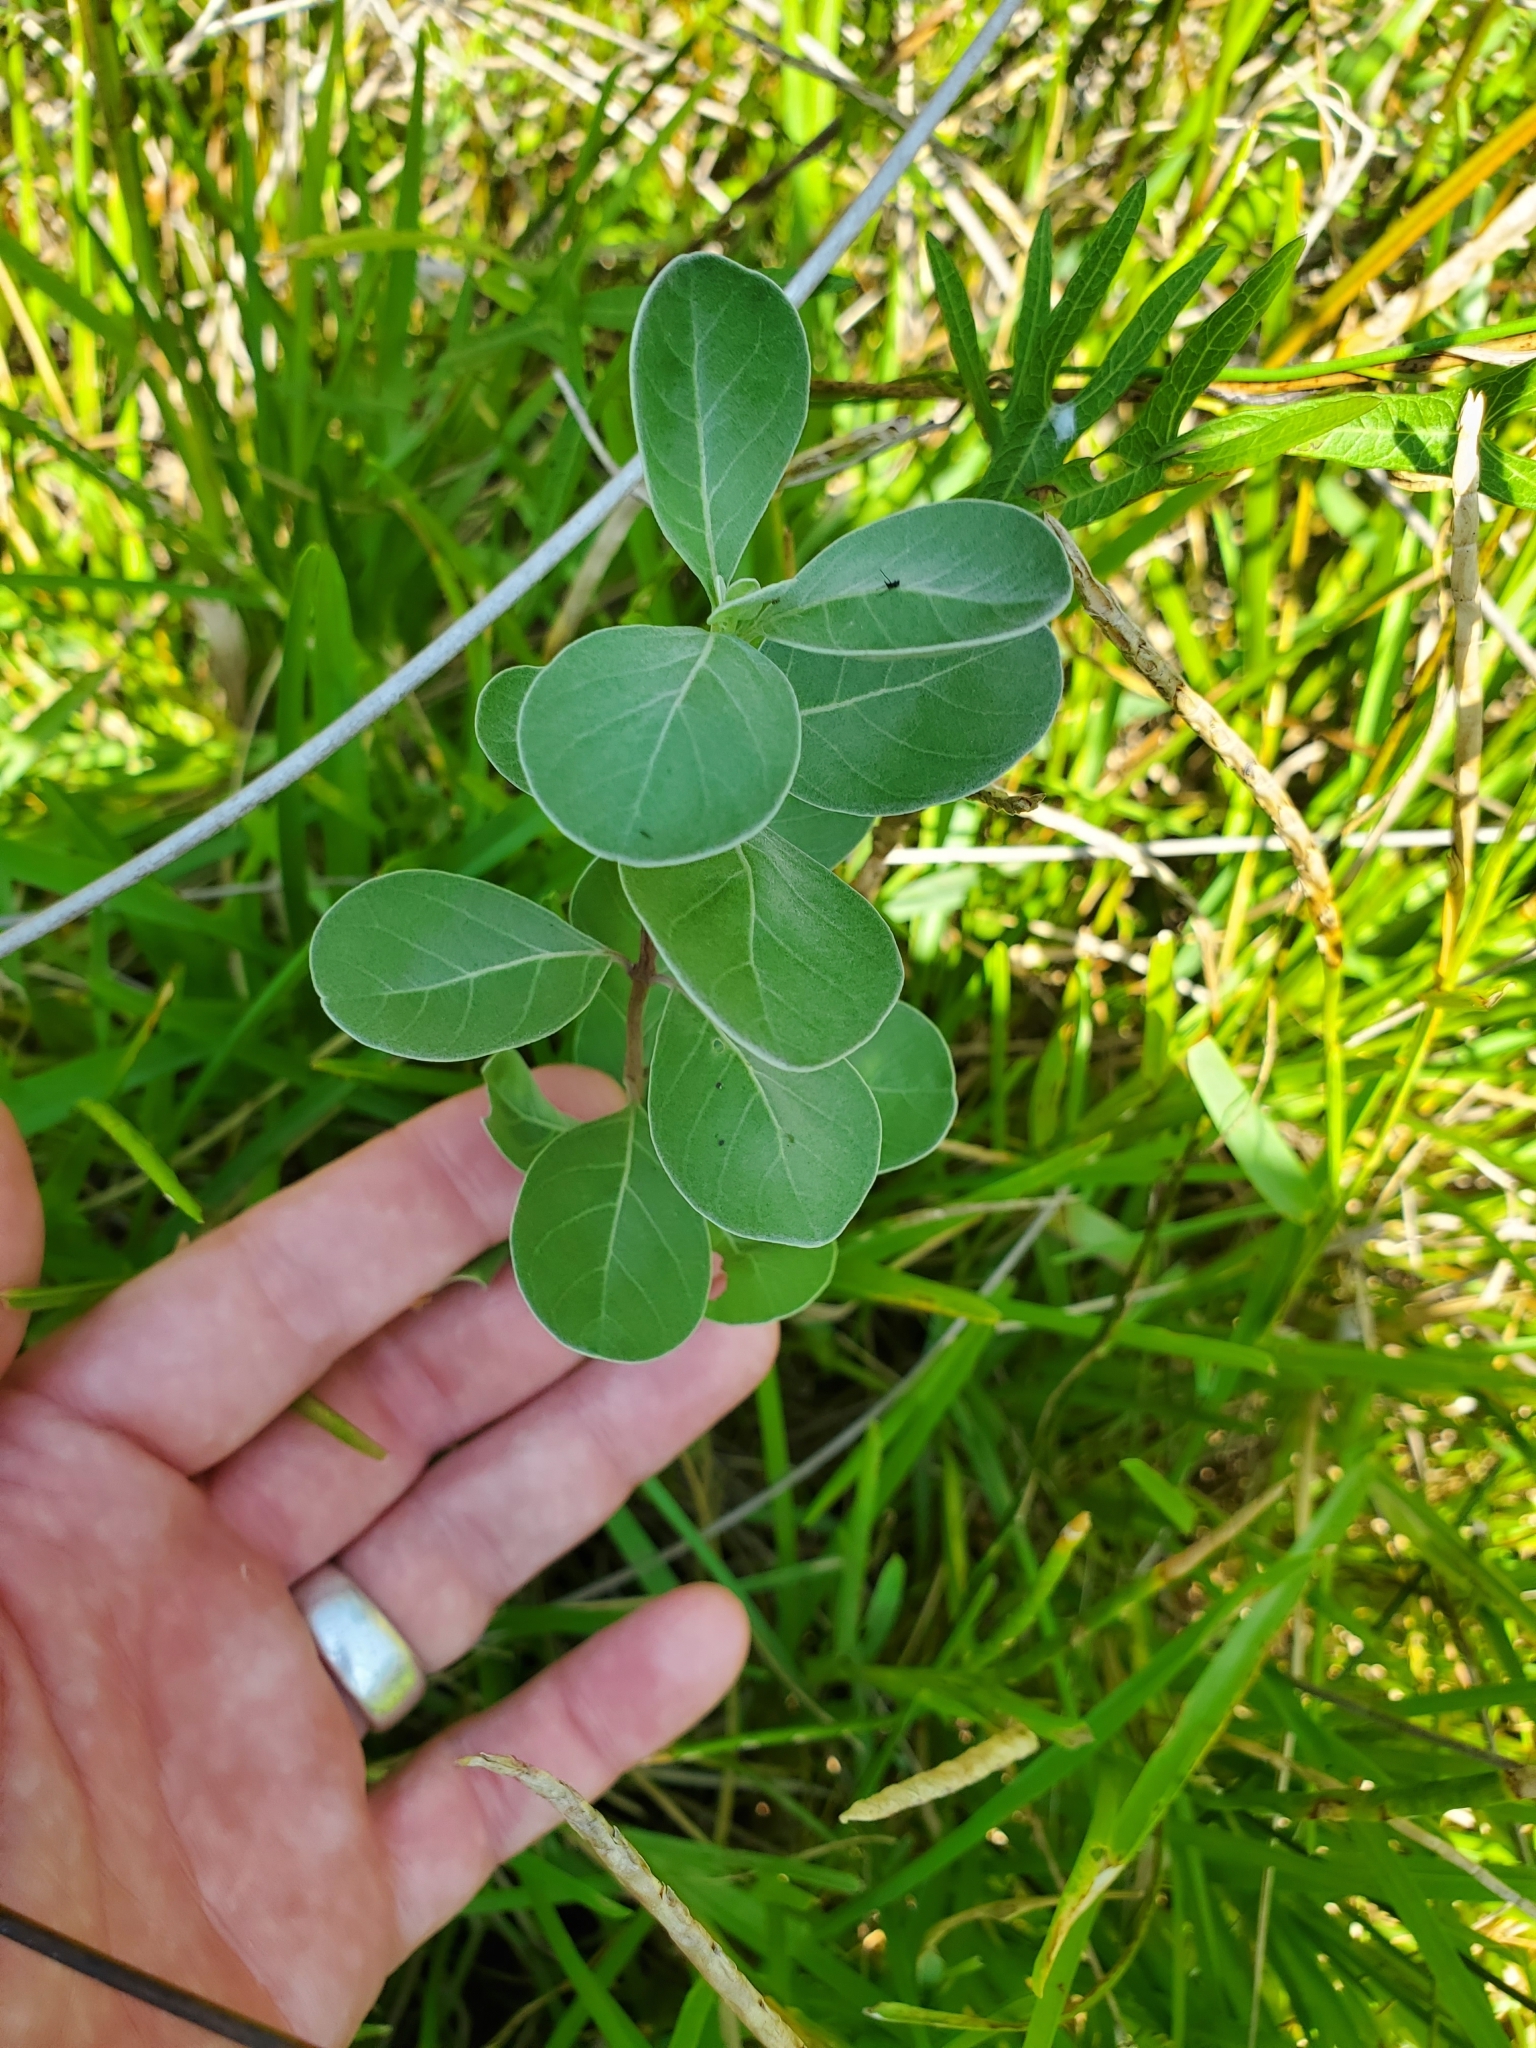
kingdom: Plantae
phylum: Tracheophyta
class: Magnoliopsida
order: Lamiales
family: Lamiaceae
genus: Vitex
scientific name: Vitex rotundifolia
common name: Beach vitex
